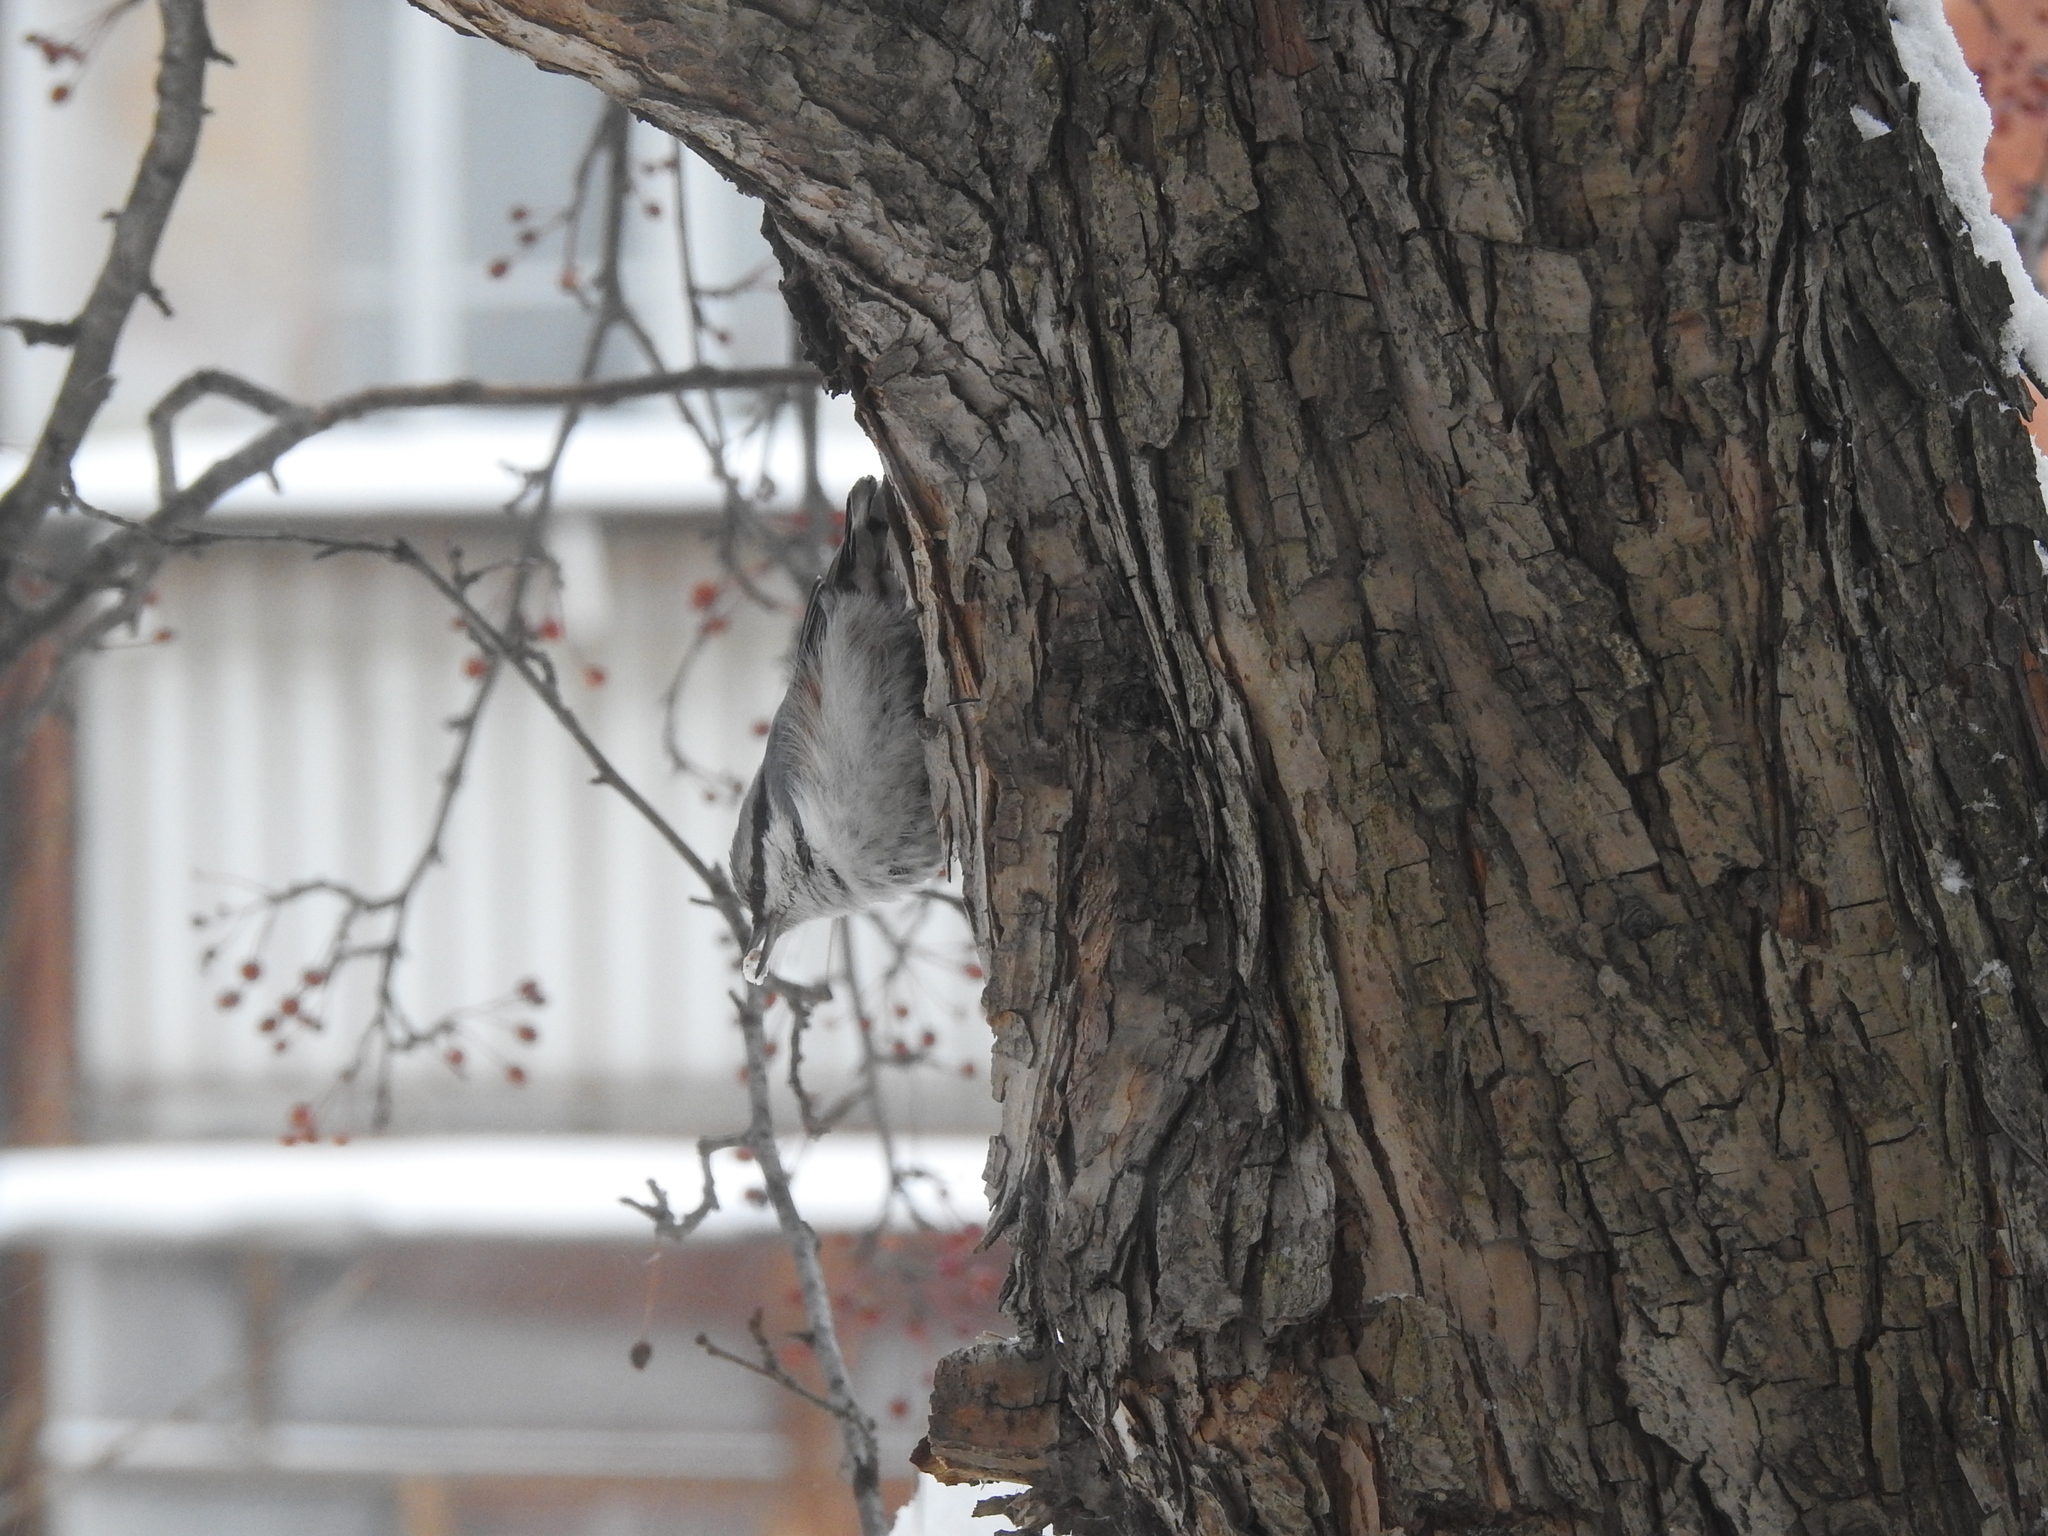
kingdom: Animalia
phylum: Chordata
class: Aves
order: Passeriformes
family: Sittidae
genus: Sitta
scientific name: Sitta europaea
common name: Eurasian nuthatch
